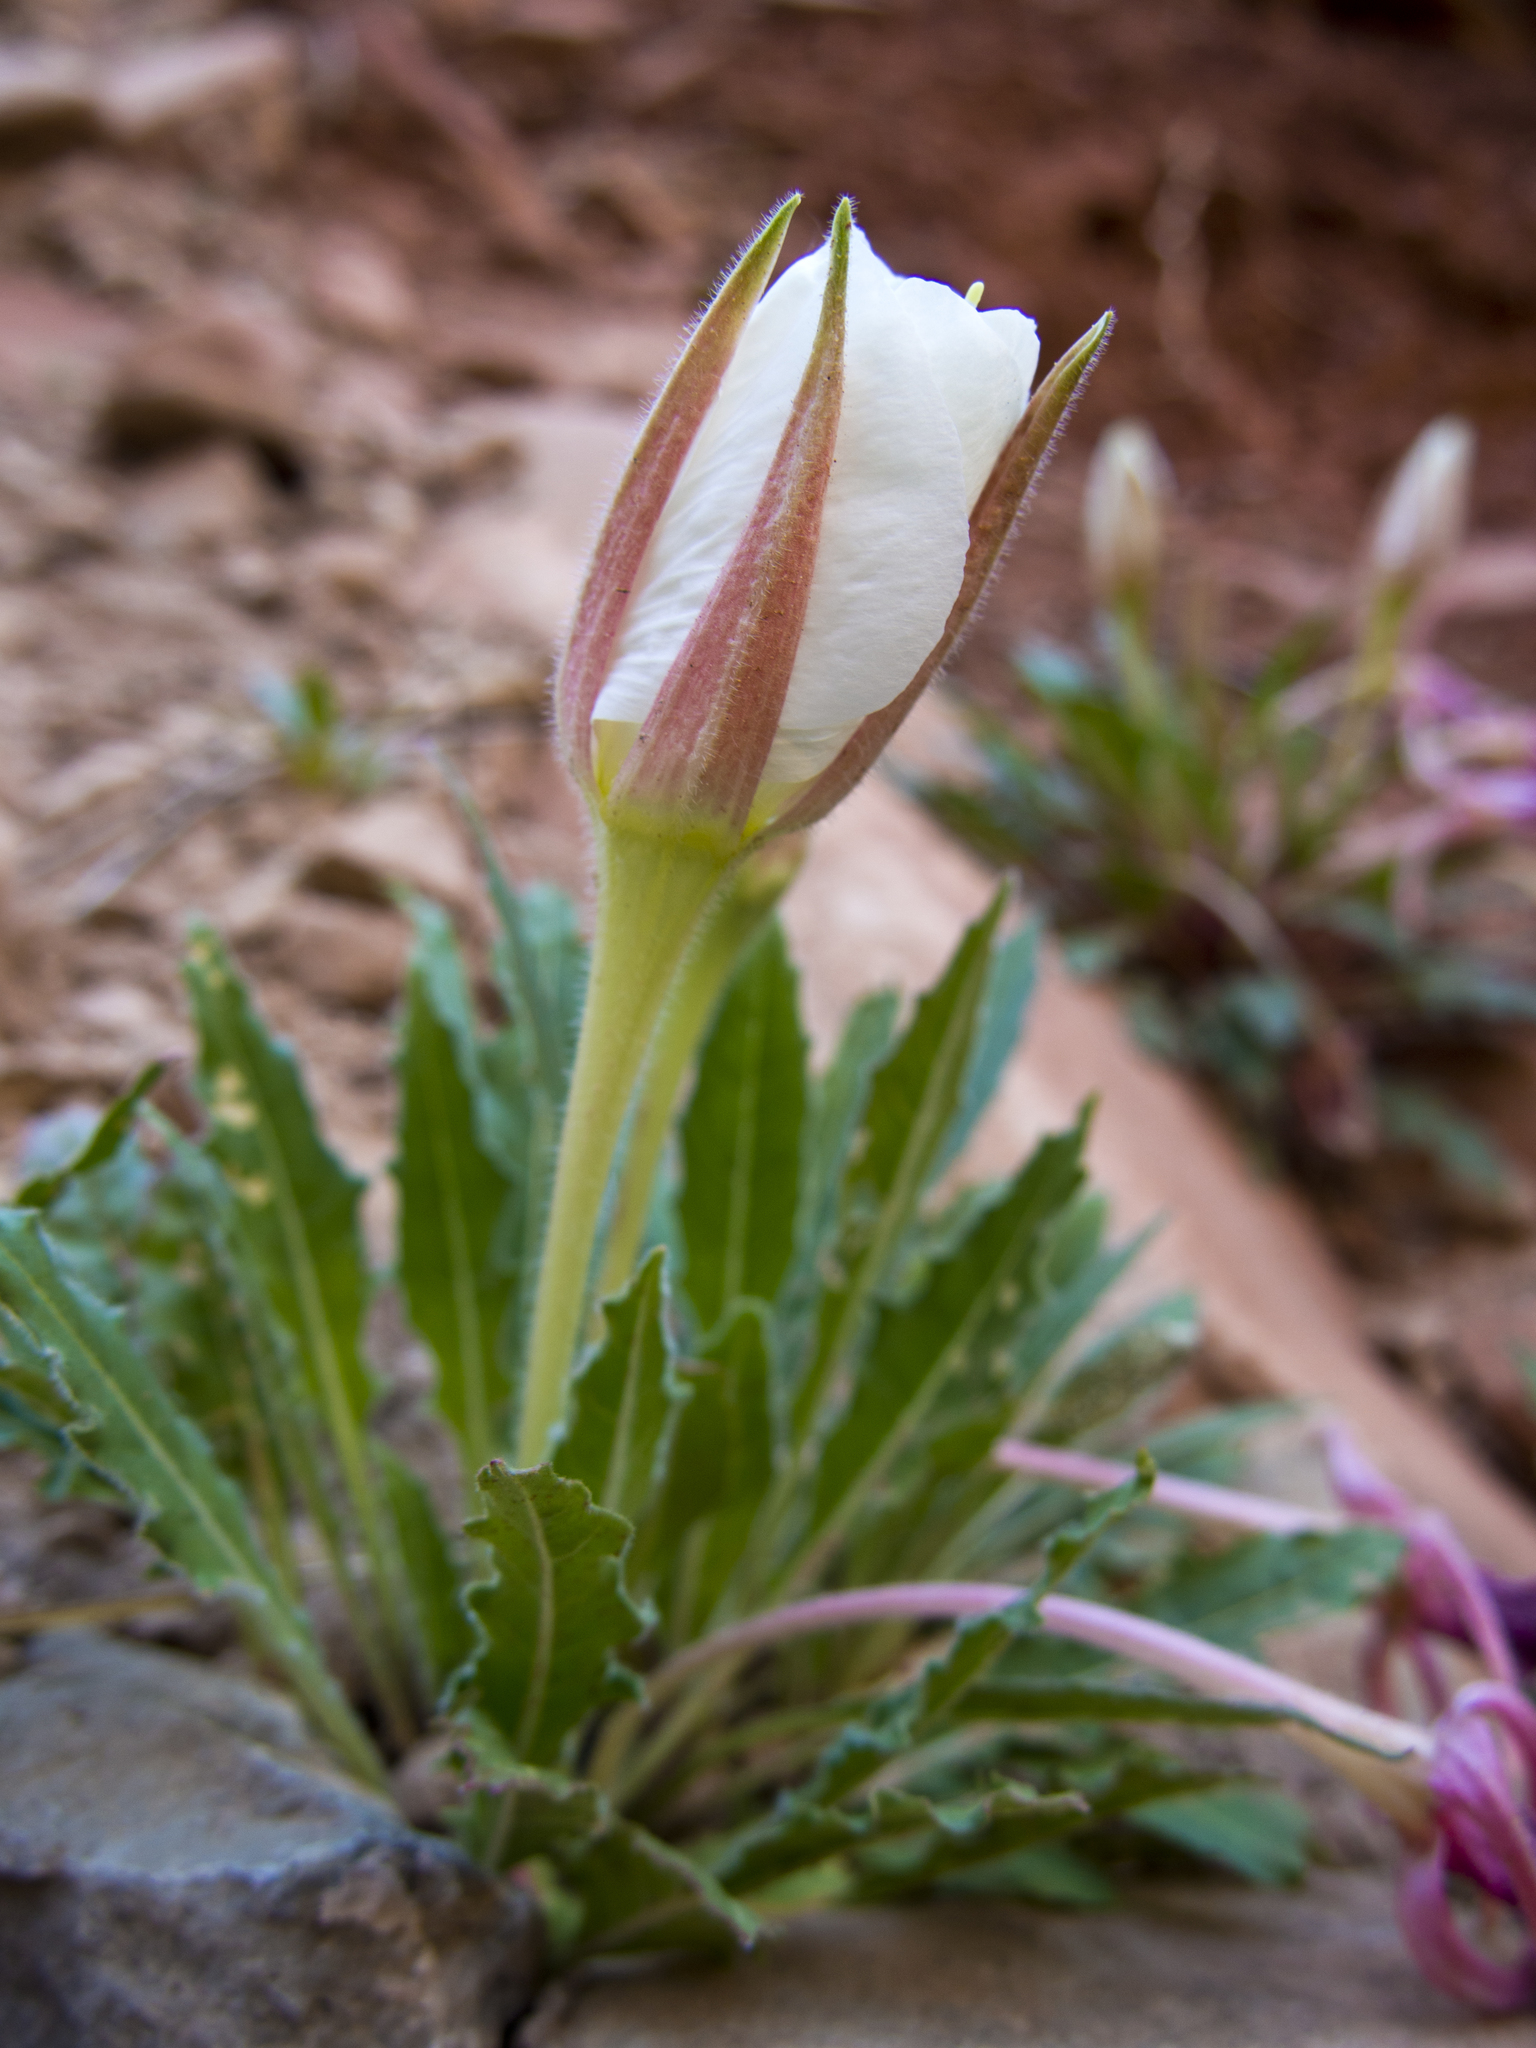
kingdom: Plantae
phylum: Tracheophyta
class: Magnoliopsida
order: Myrtales
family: Onagraceae
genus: Oenothera
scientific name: Oenothera cespitosa
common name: Tufted evening-primrose
